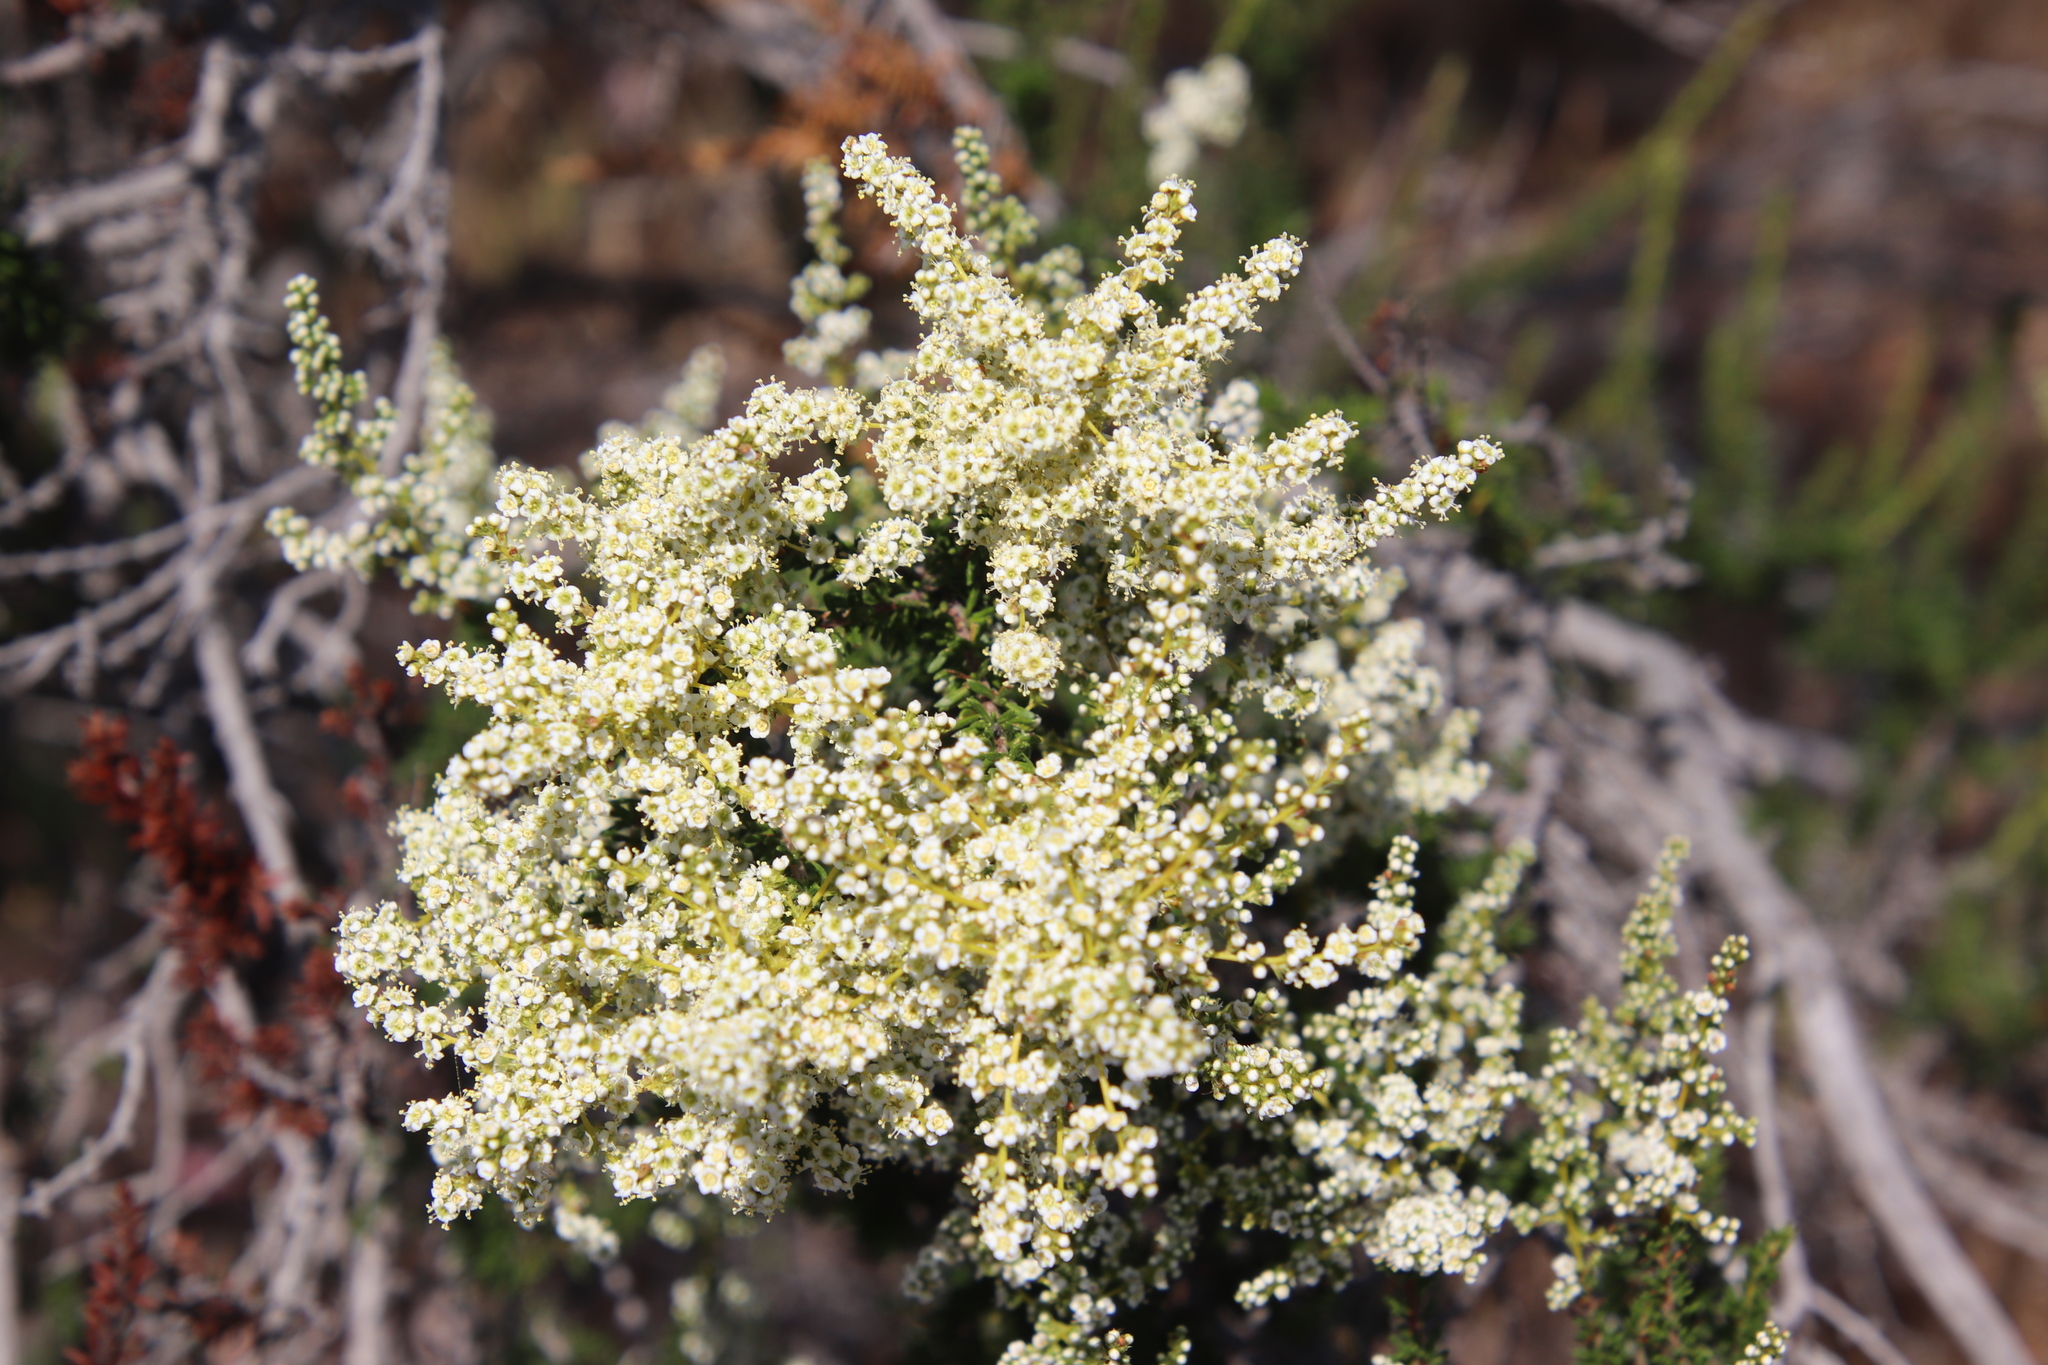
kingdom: Plantae
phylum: Tracheophyta
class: Magnoliopsida
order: Rosales
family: Rosaceae
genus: Adenostoma
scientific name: Adenostoma fasciculatum
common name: Chamise
